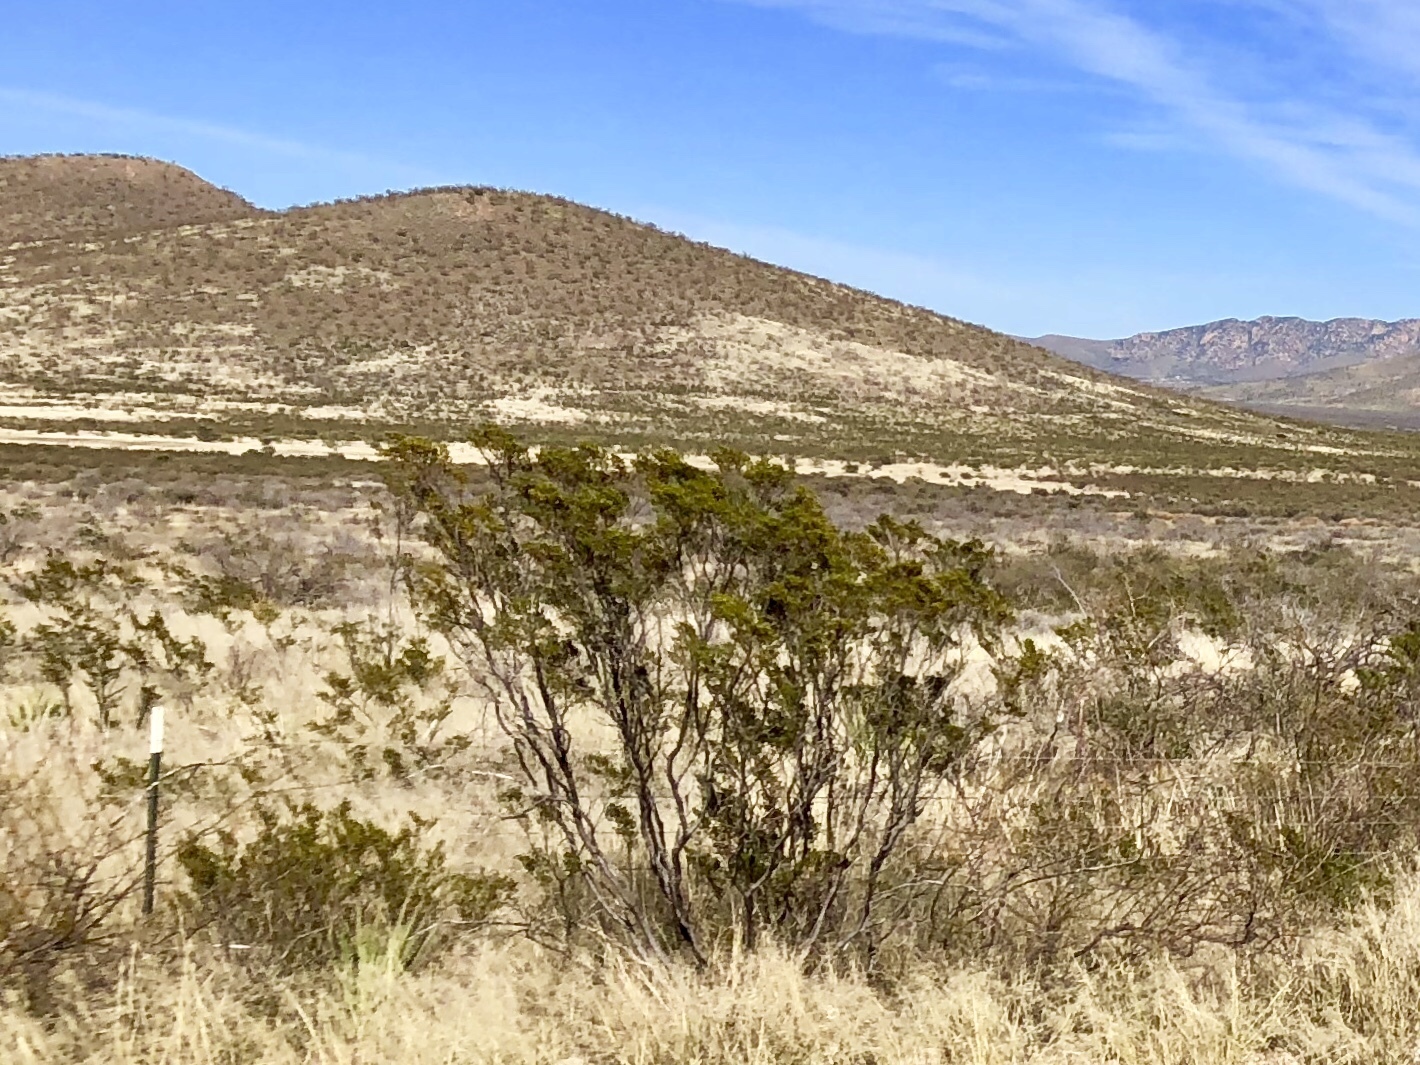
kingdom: Plantae
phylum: Tracheophyta
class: Magnoliopsida
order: Zygophyllales
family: Zygophyllaceae
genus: Larrea
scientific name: Larrea tridentata
